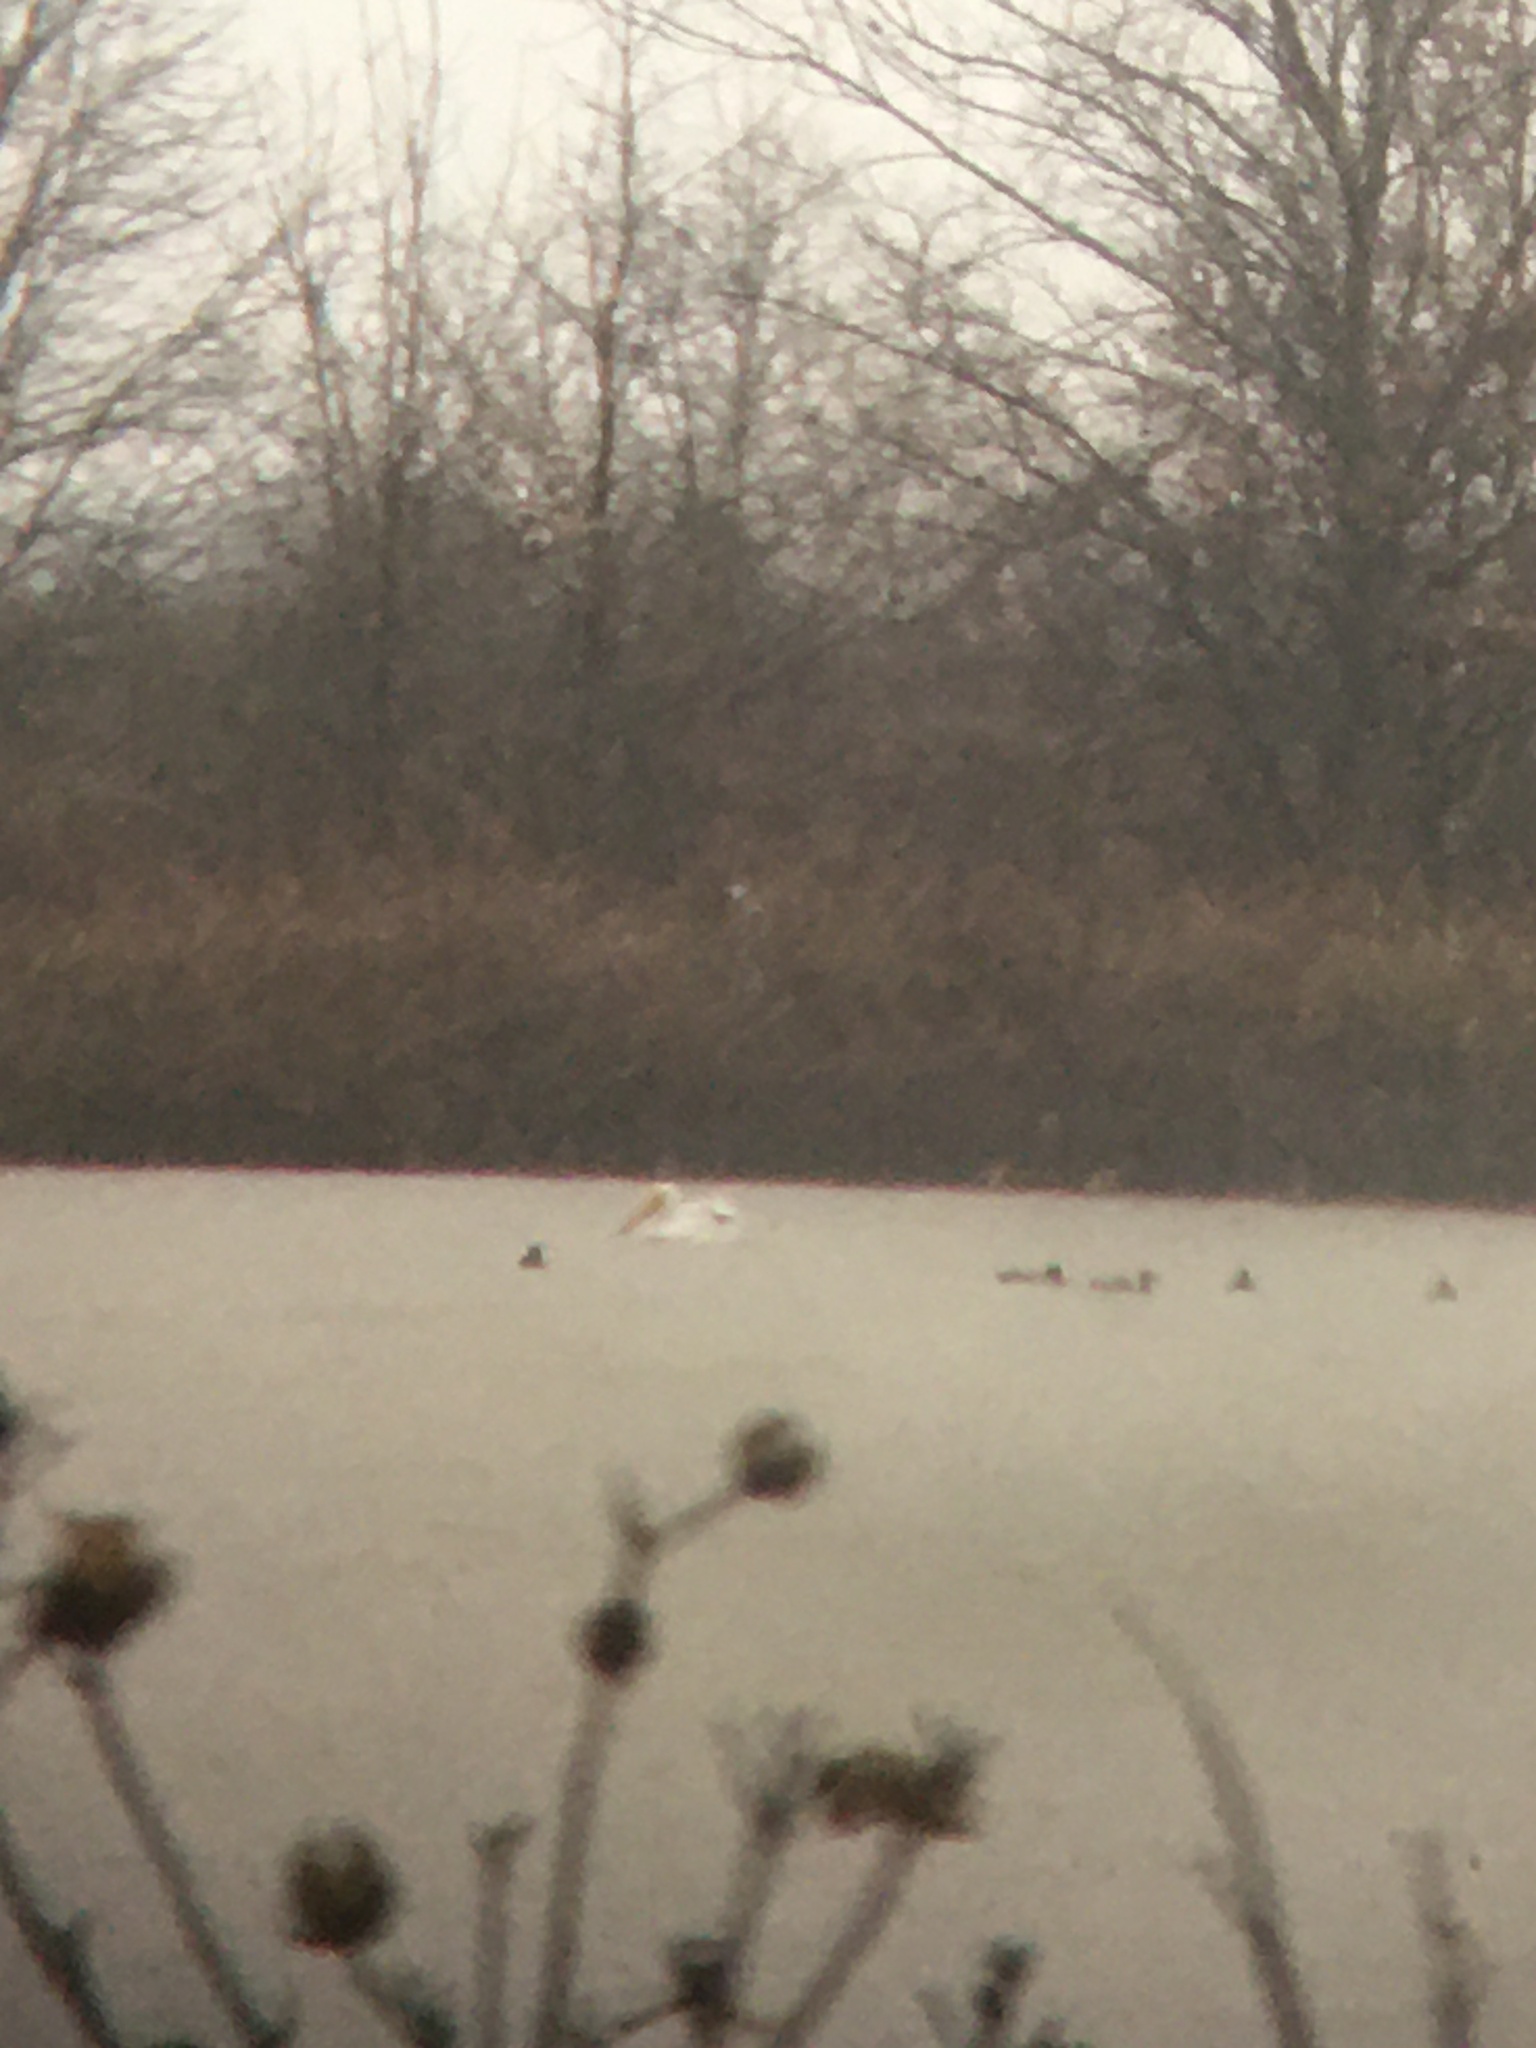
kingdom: Animalia
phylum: Chordata
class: Aves
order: Pelecaniformes
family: Pelecanidae
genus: Pelecanus
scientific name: Pelecanus erythrorhynchos
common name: American white pelican
